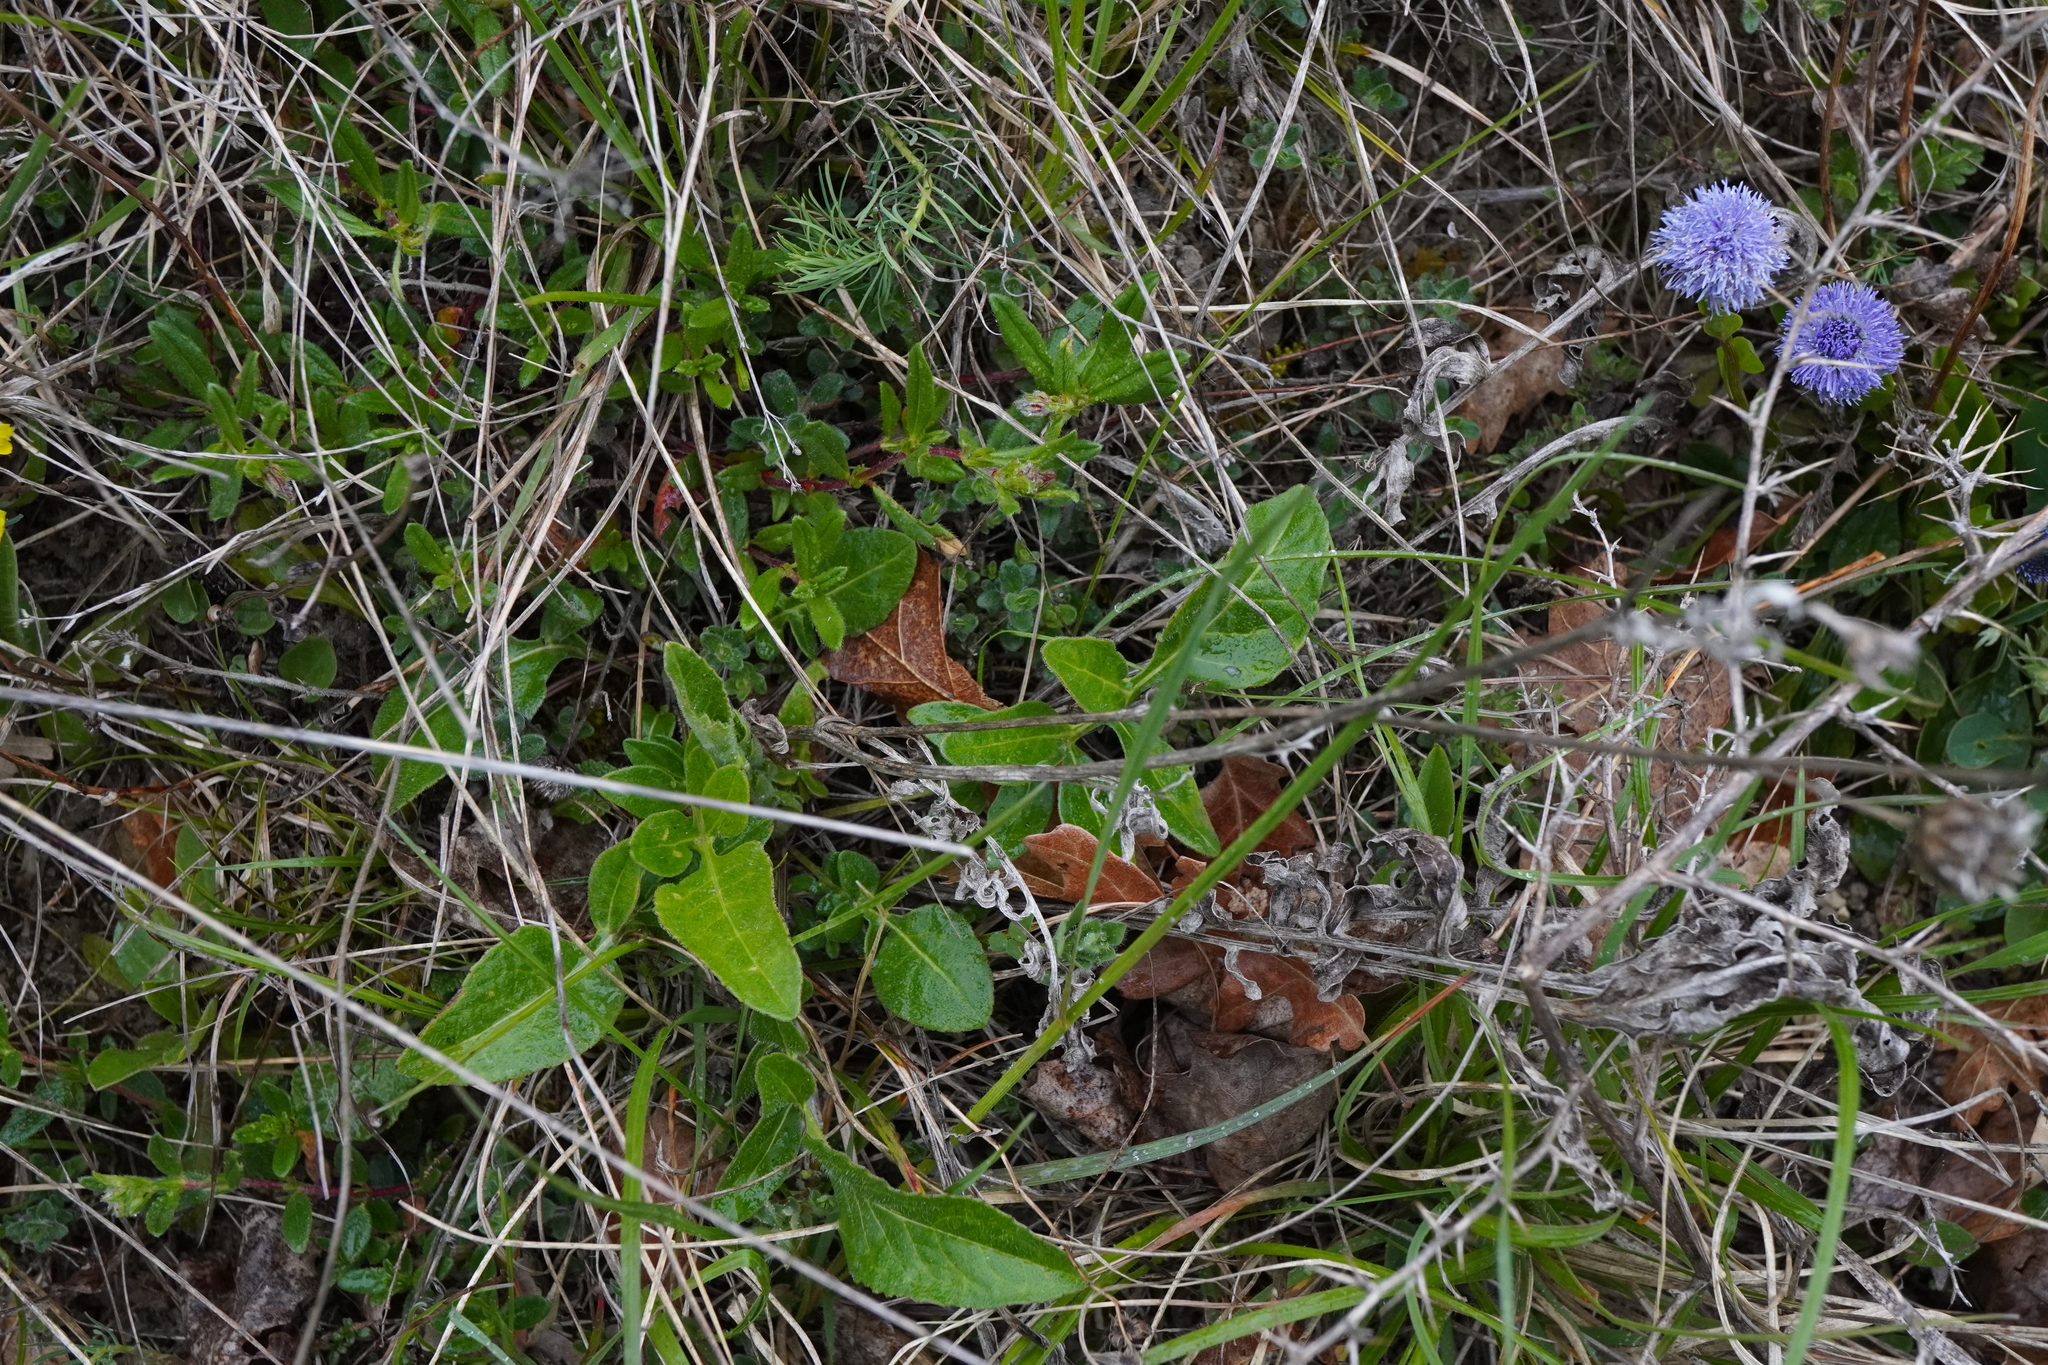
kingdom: Plantae
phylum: Tracheophyta
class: Magnoliopsida
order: Asterales
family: Asteraceae
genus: Centaurea
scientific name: Centaurea scabiosa
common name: Greater knapweed
